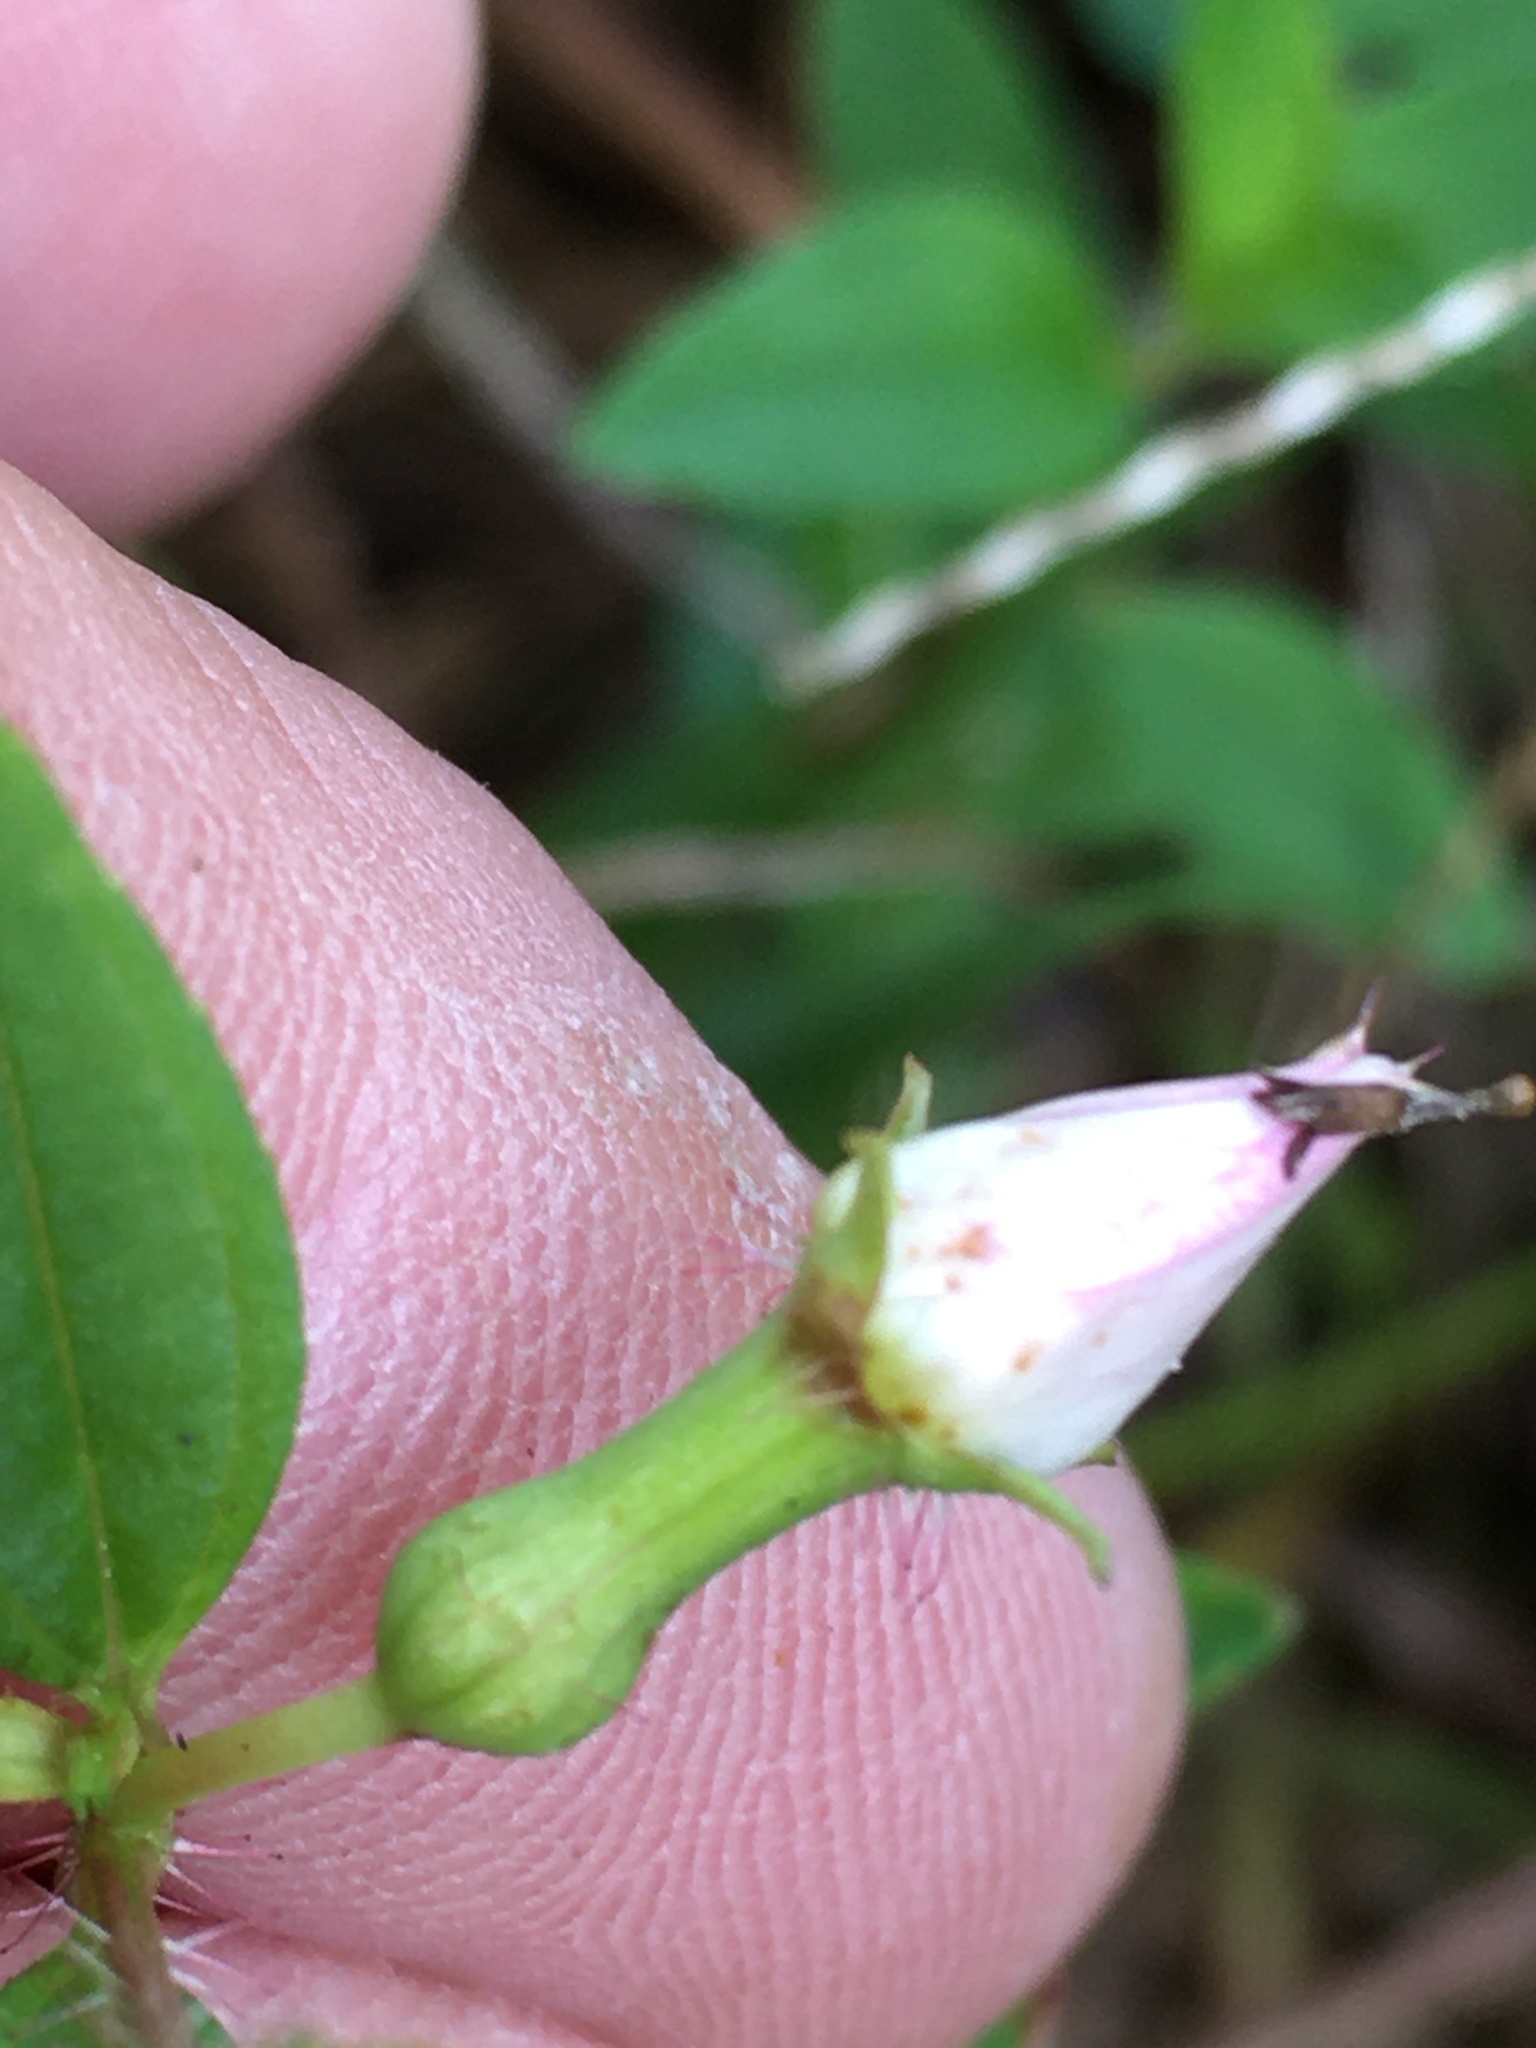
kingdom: Plantae
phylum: Tracheophyta
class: Magnoliopsida
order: Myrtales
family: Melastomataceae
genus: Rhexia
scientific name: Rhexia mariana
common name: Dull meadow-pitcher
